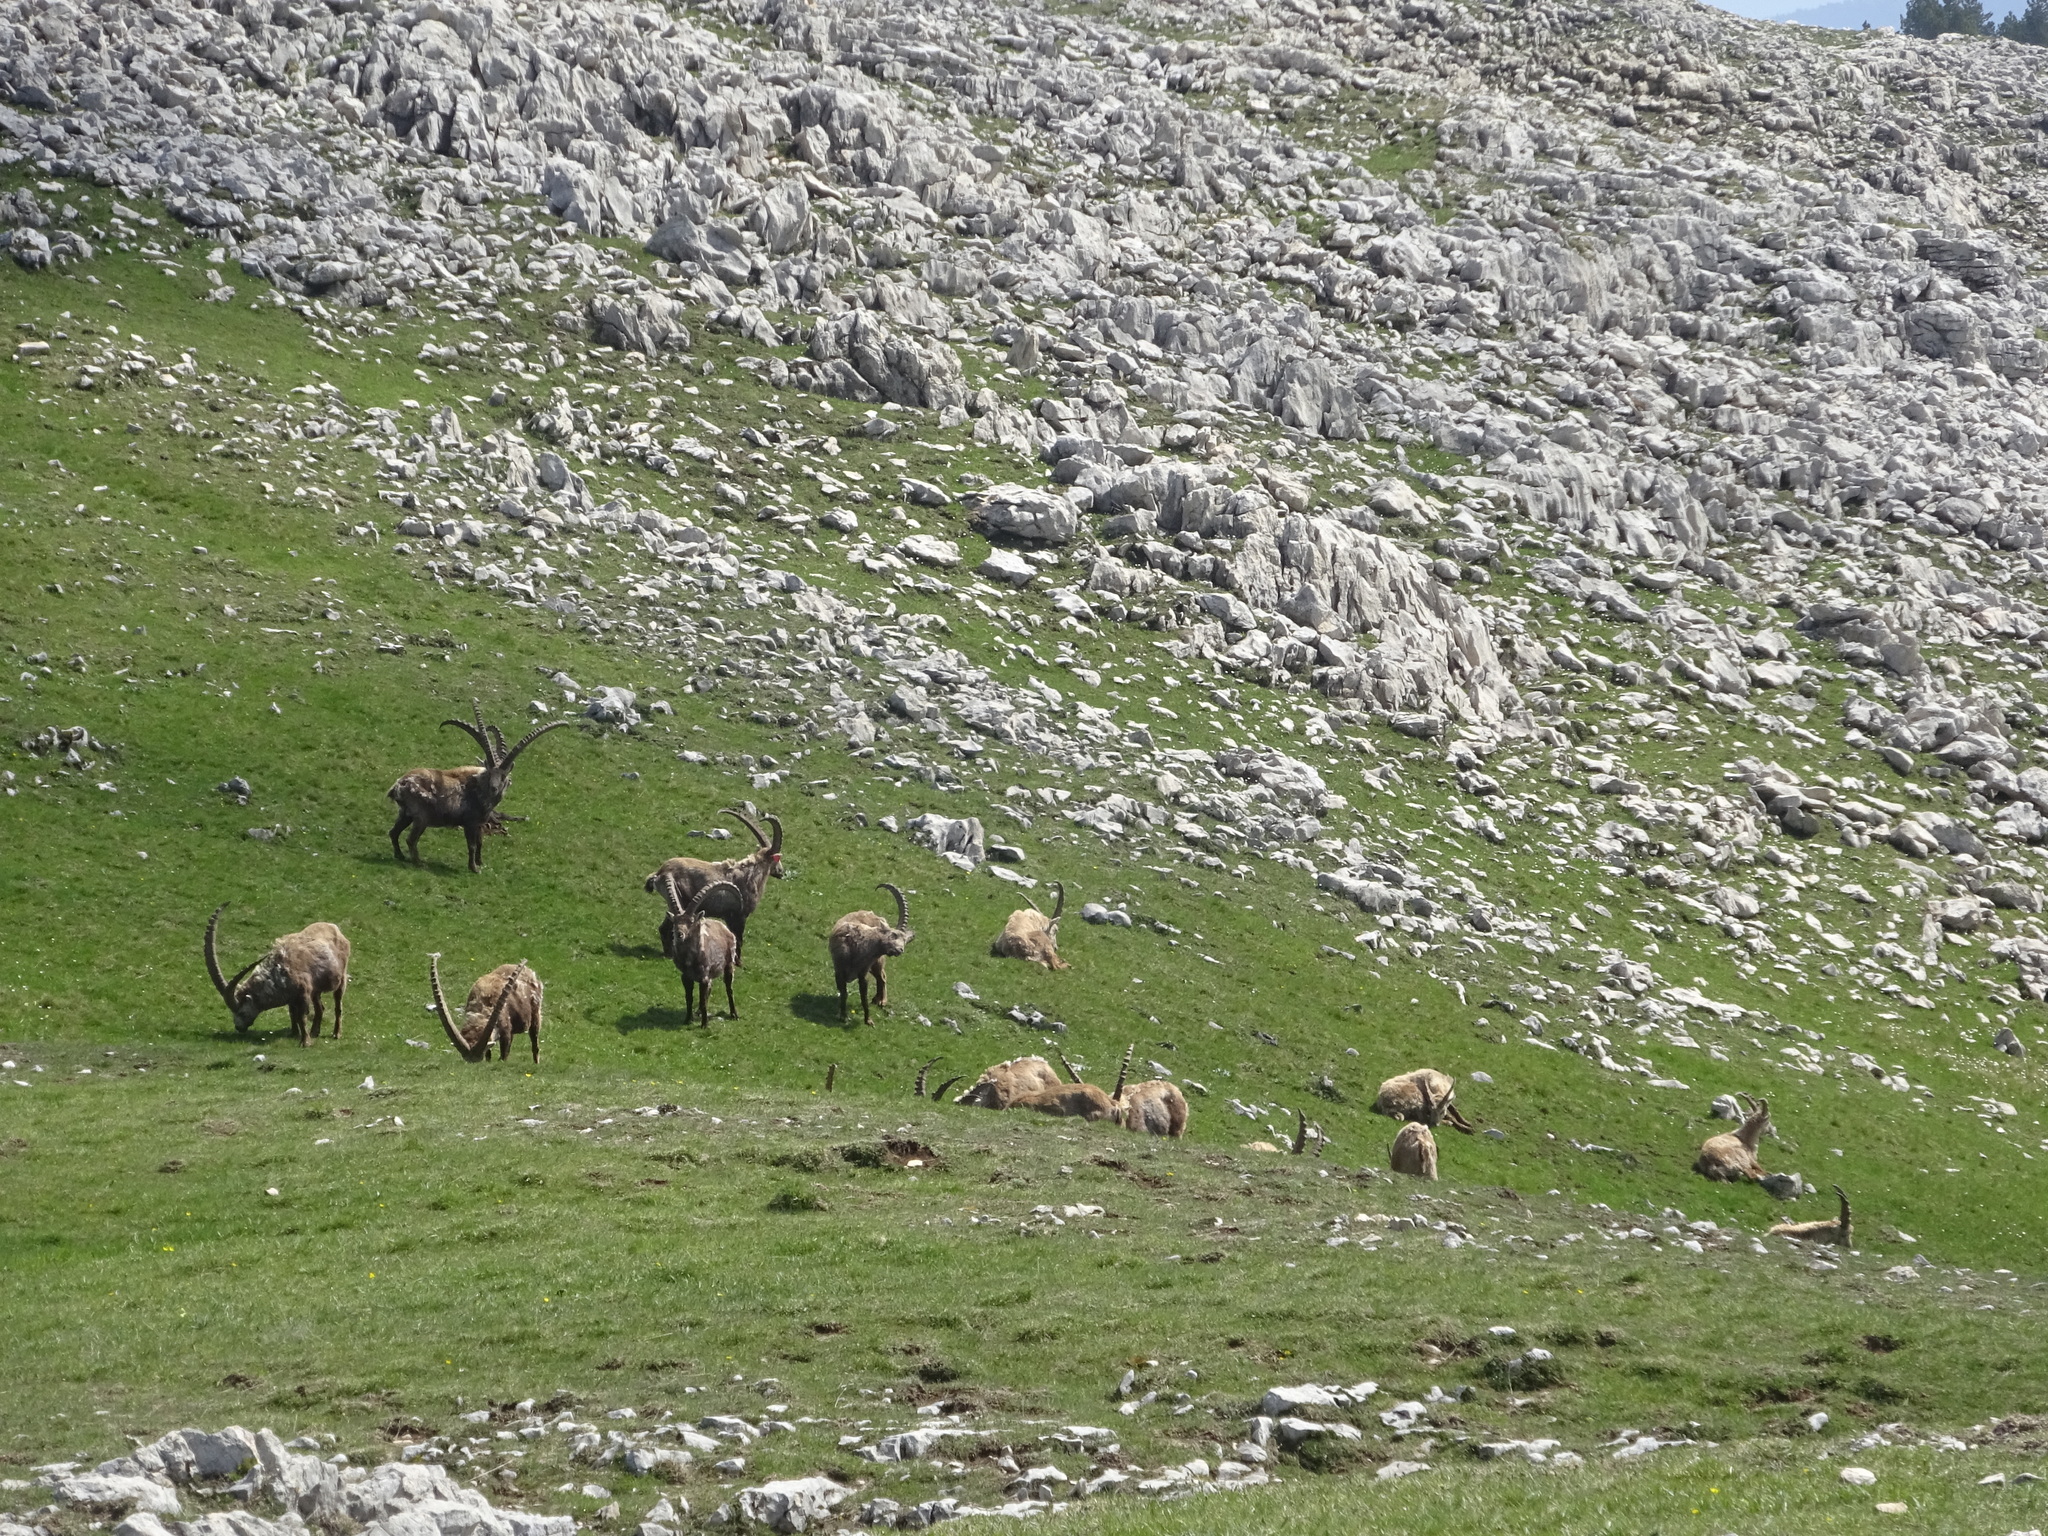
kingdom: Animalia
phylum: Chordata
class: Mammalia
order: Artiodactyla
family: Bovidae
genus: Capra
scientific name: Capra ibex
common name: Alpine ibex
